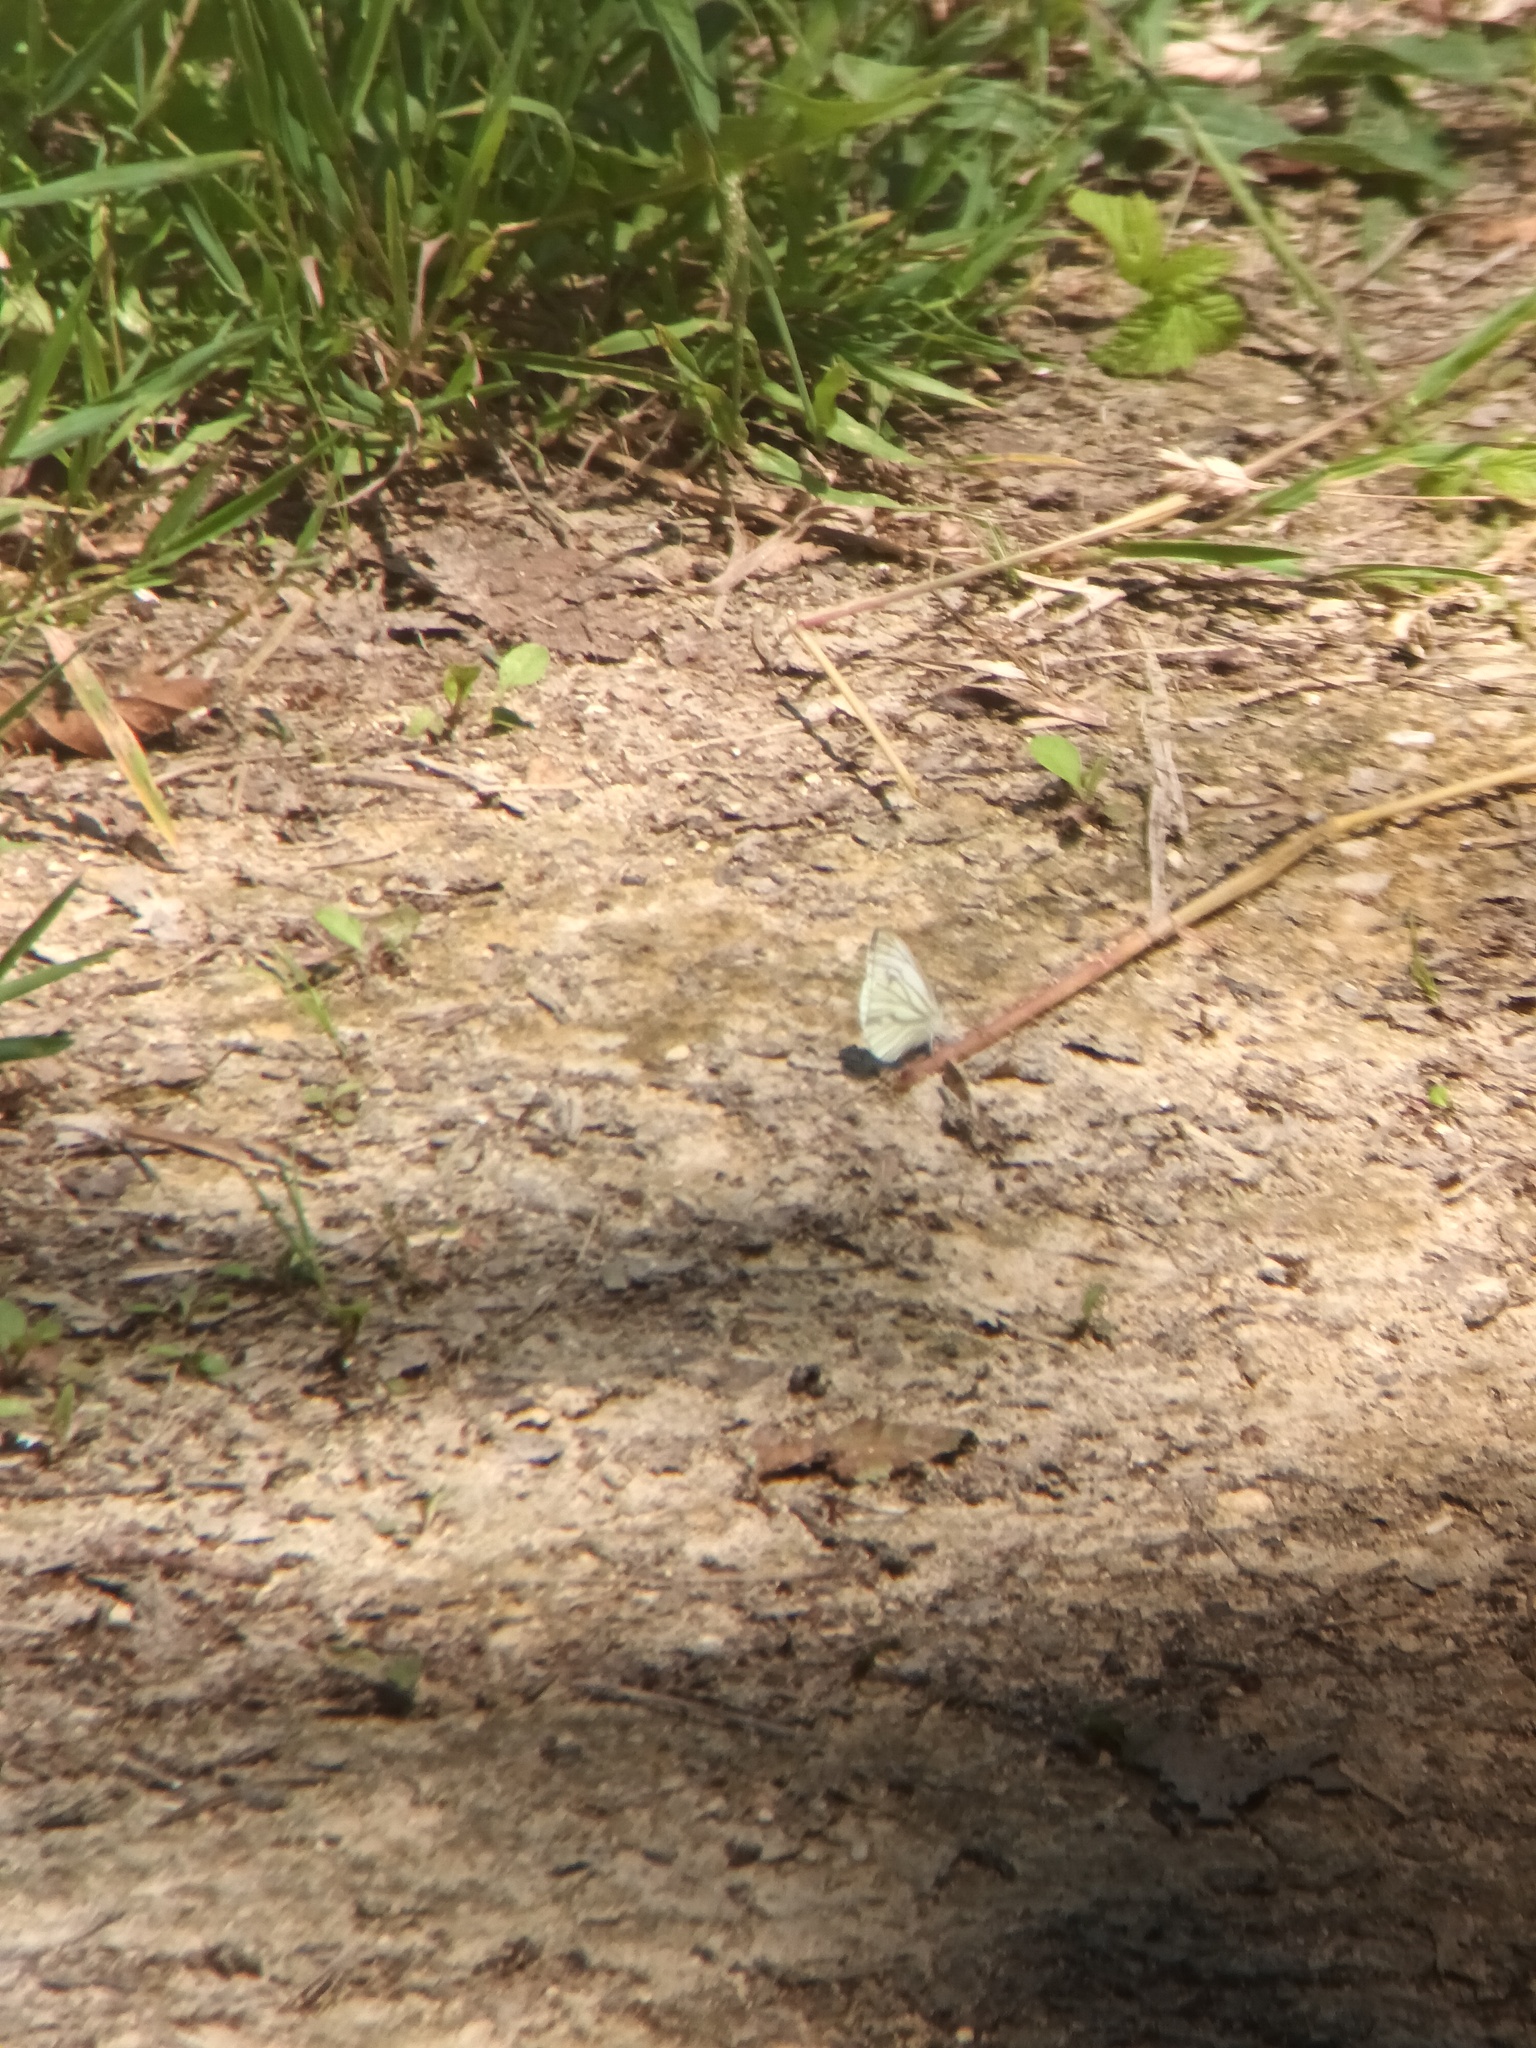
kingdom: Animalia
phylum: Arthropoda
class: Insecta
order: Lepidoptera
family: Pieridae
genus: Pieris
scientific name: Pieris napi
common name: Green-veined white
